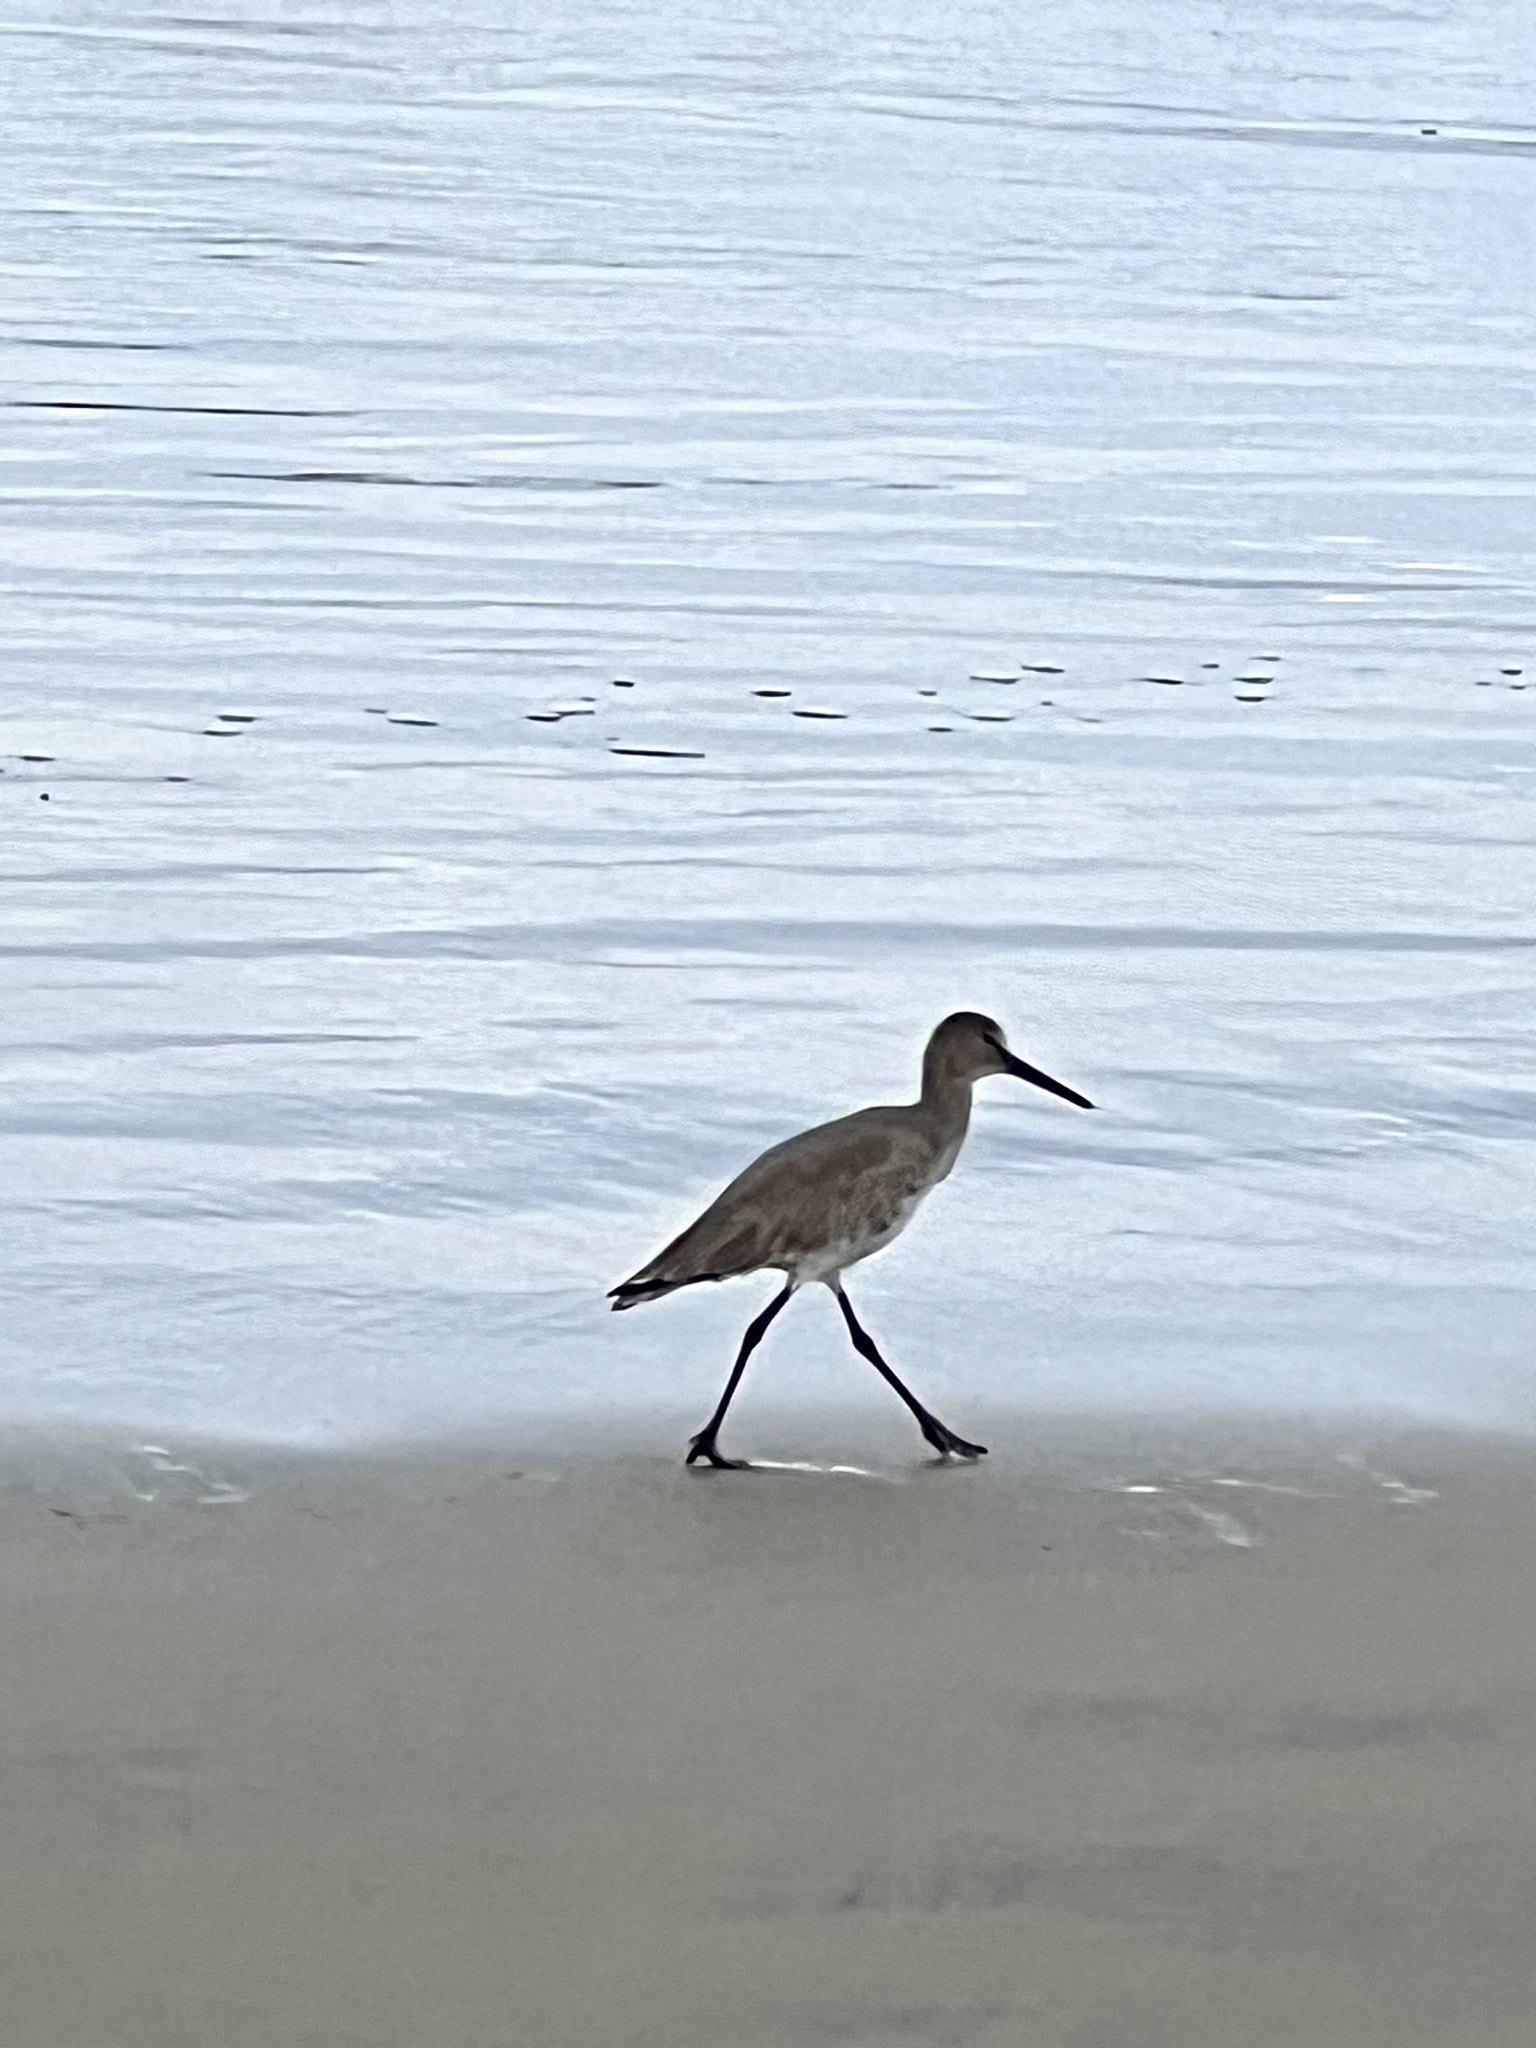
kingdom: Animalia
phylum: Chordata
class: Aves
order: Charadriiformes
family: Scolopacidae
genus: Tringa
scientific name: Tringa semipalmata
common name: Willet
